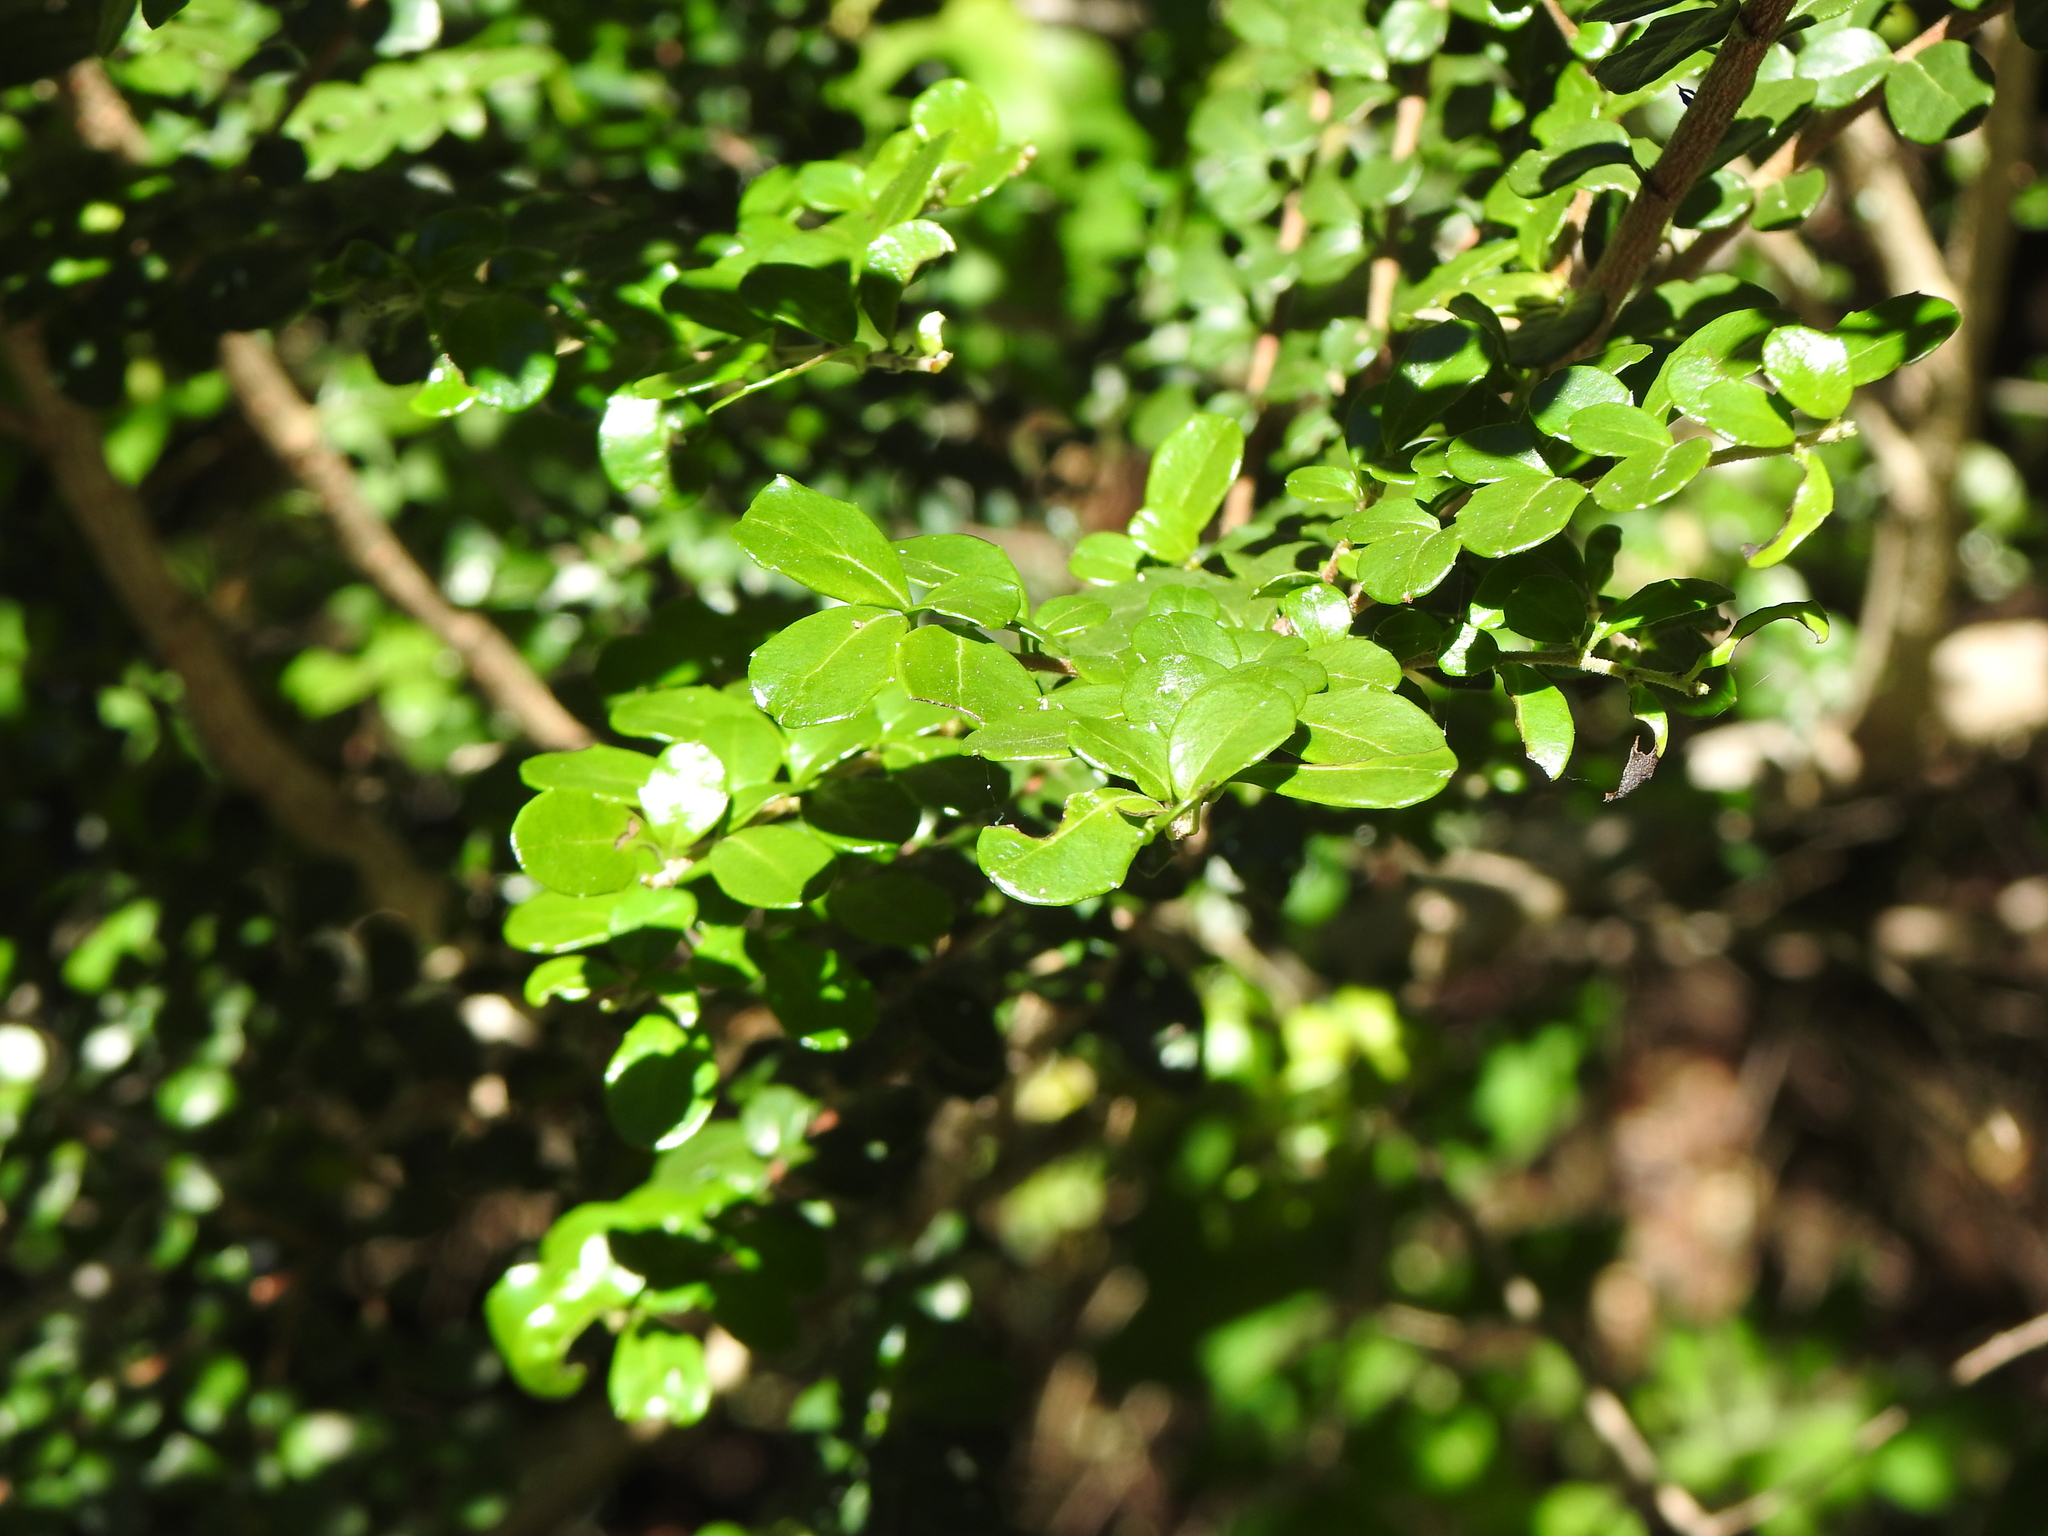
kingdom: Plantae
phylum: Tracheophyta
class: Magnoliopsida
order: Malpighiales
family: Salicaceae
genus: Azara
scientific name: Azara microphylla
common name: Box-leaf azara
